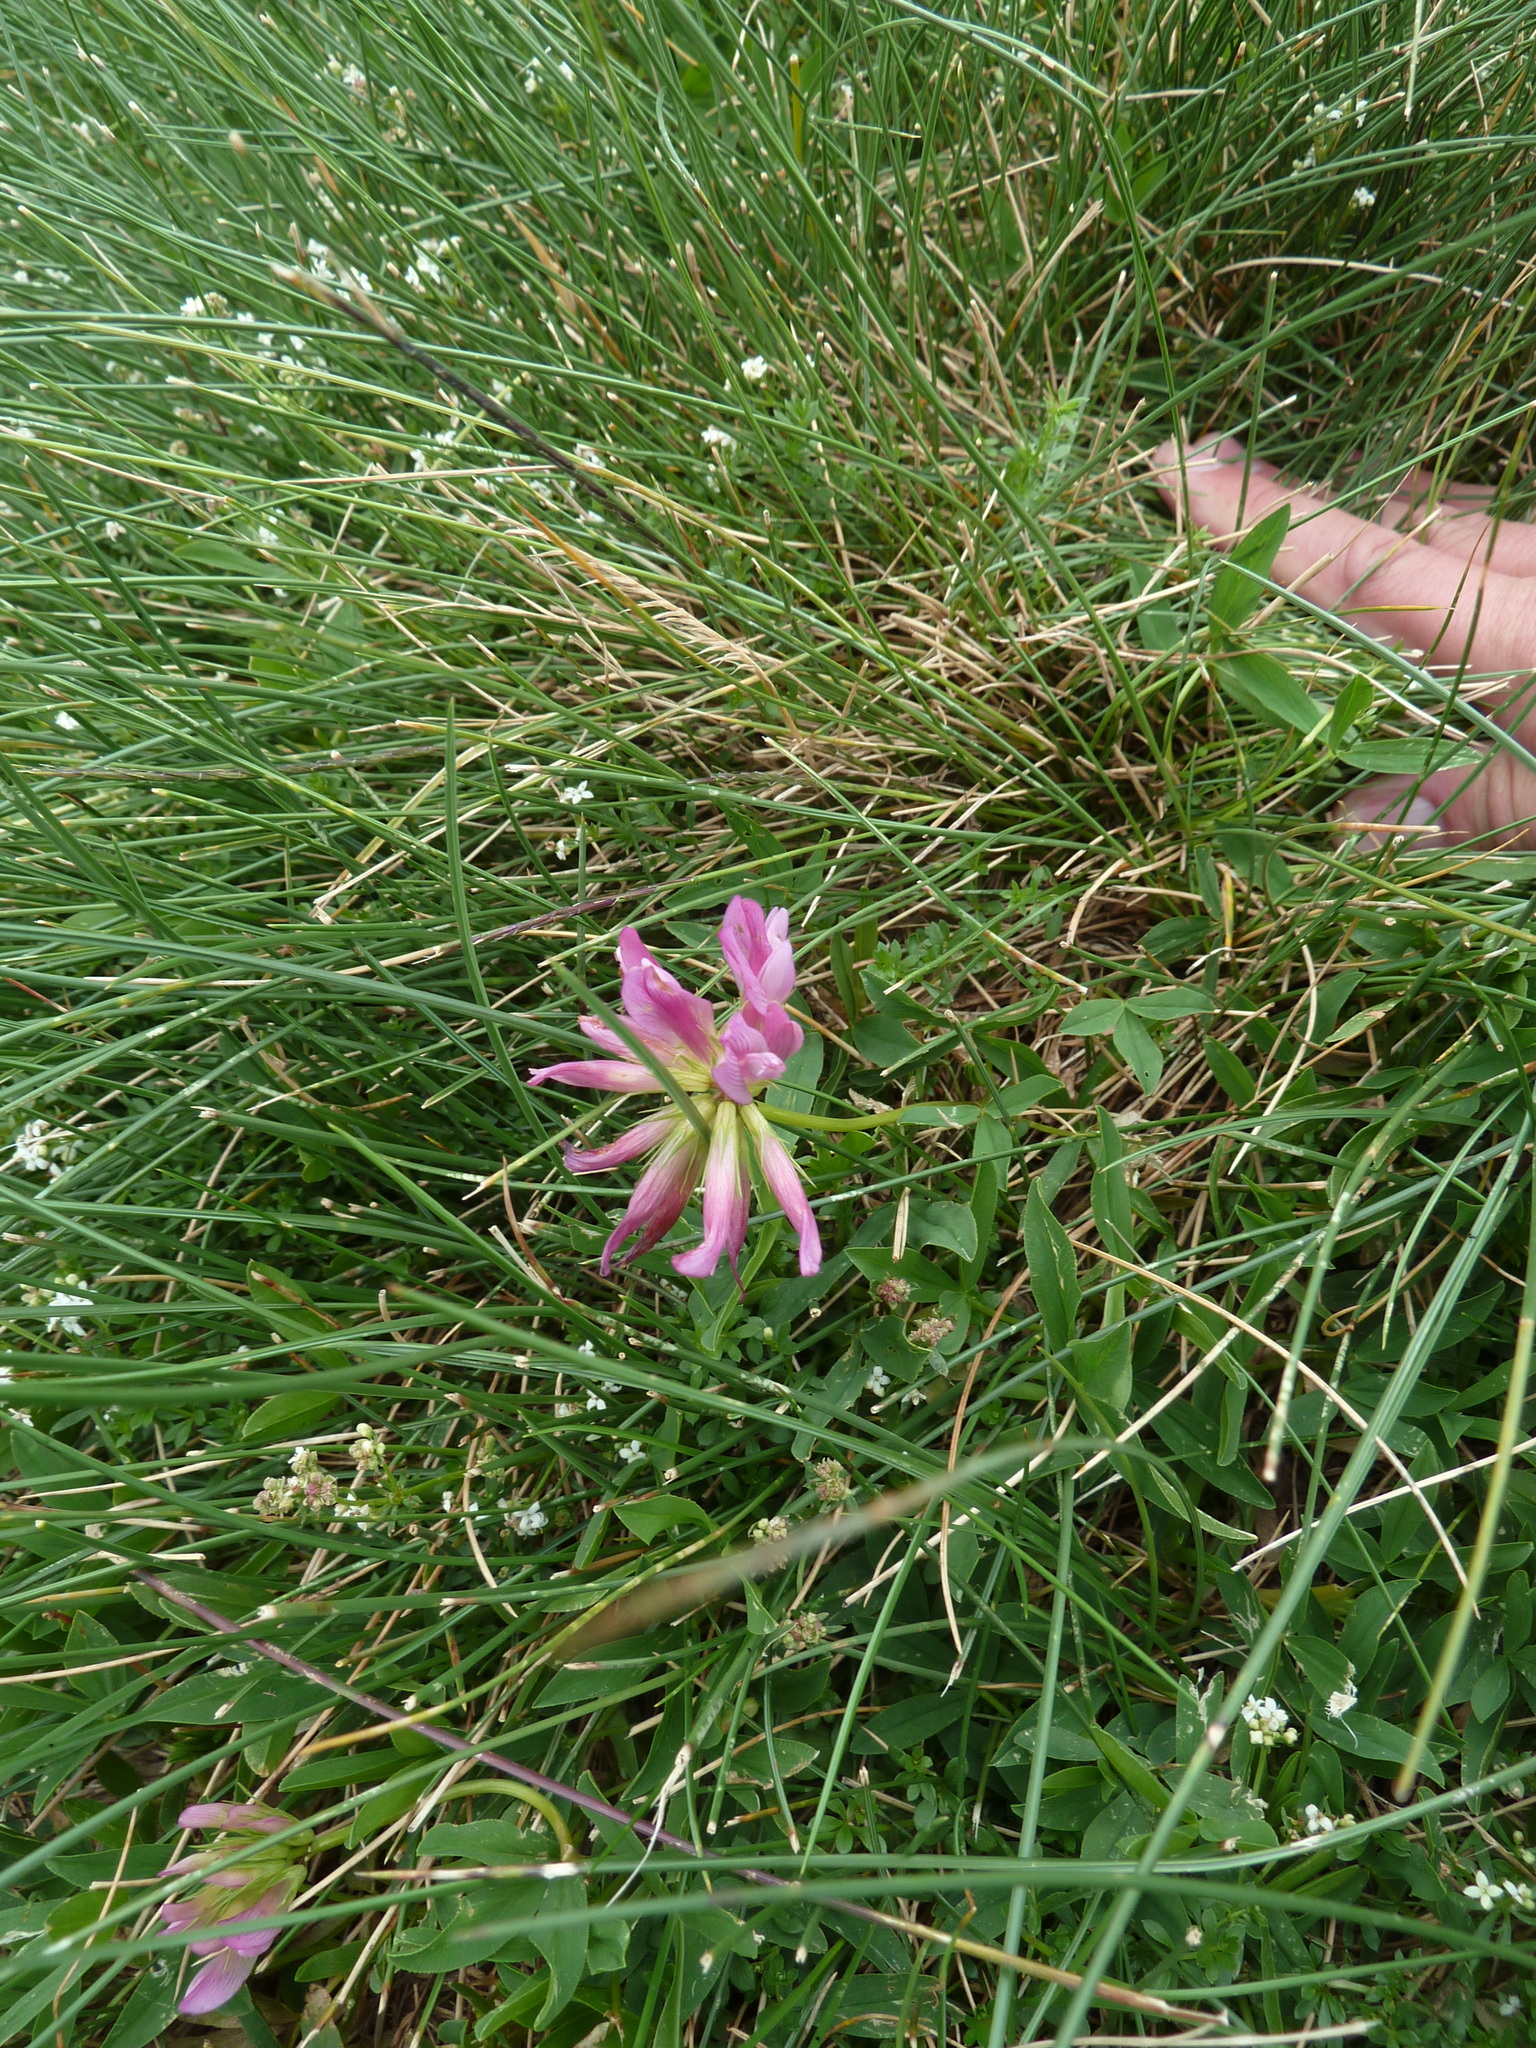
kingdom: Plantae
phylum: Tracheophyta
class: Magnoliopsida
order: Fabales
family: Fabaceae
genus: Trifolium
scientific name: Trifolium alpinum
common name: Alpine clover
